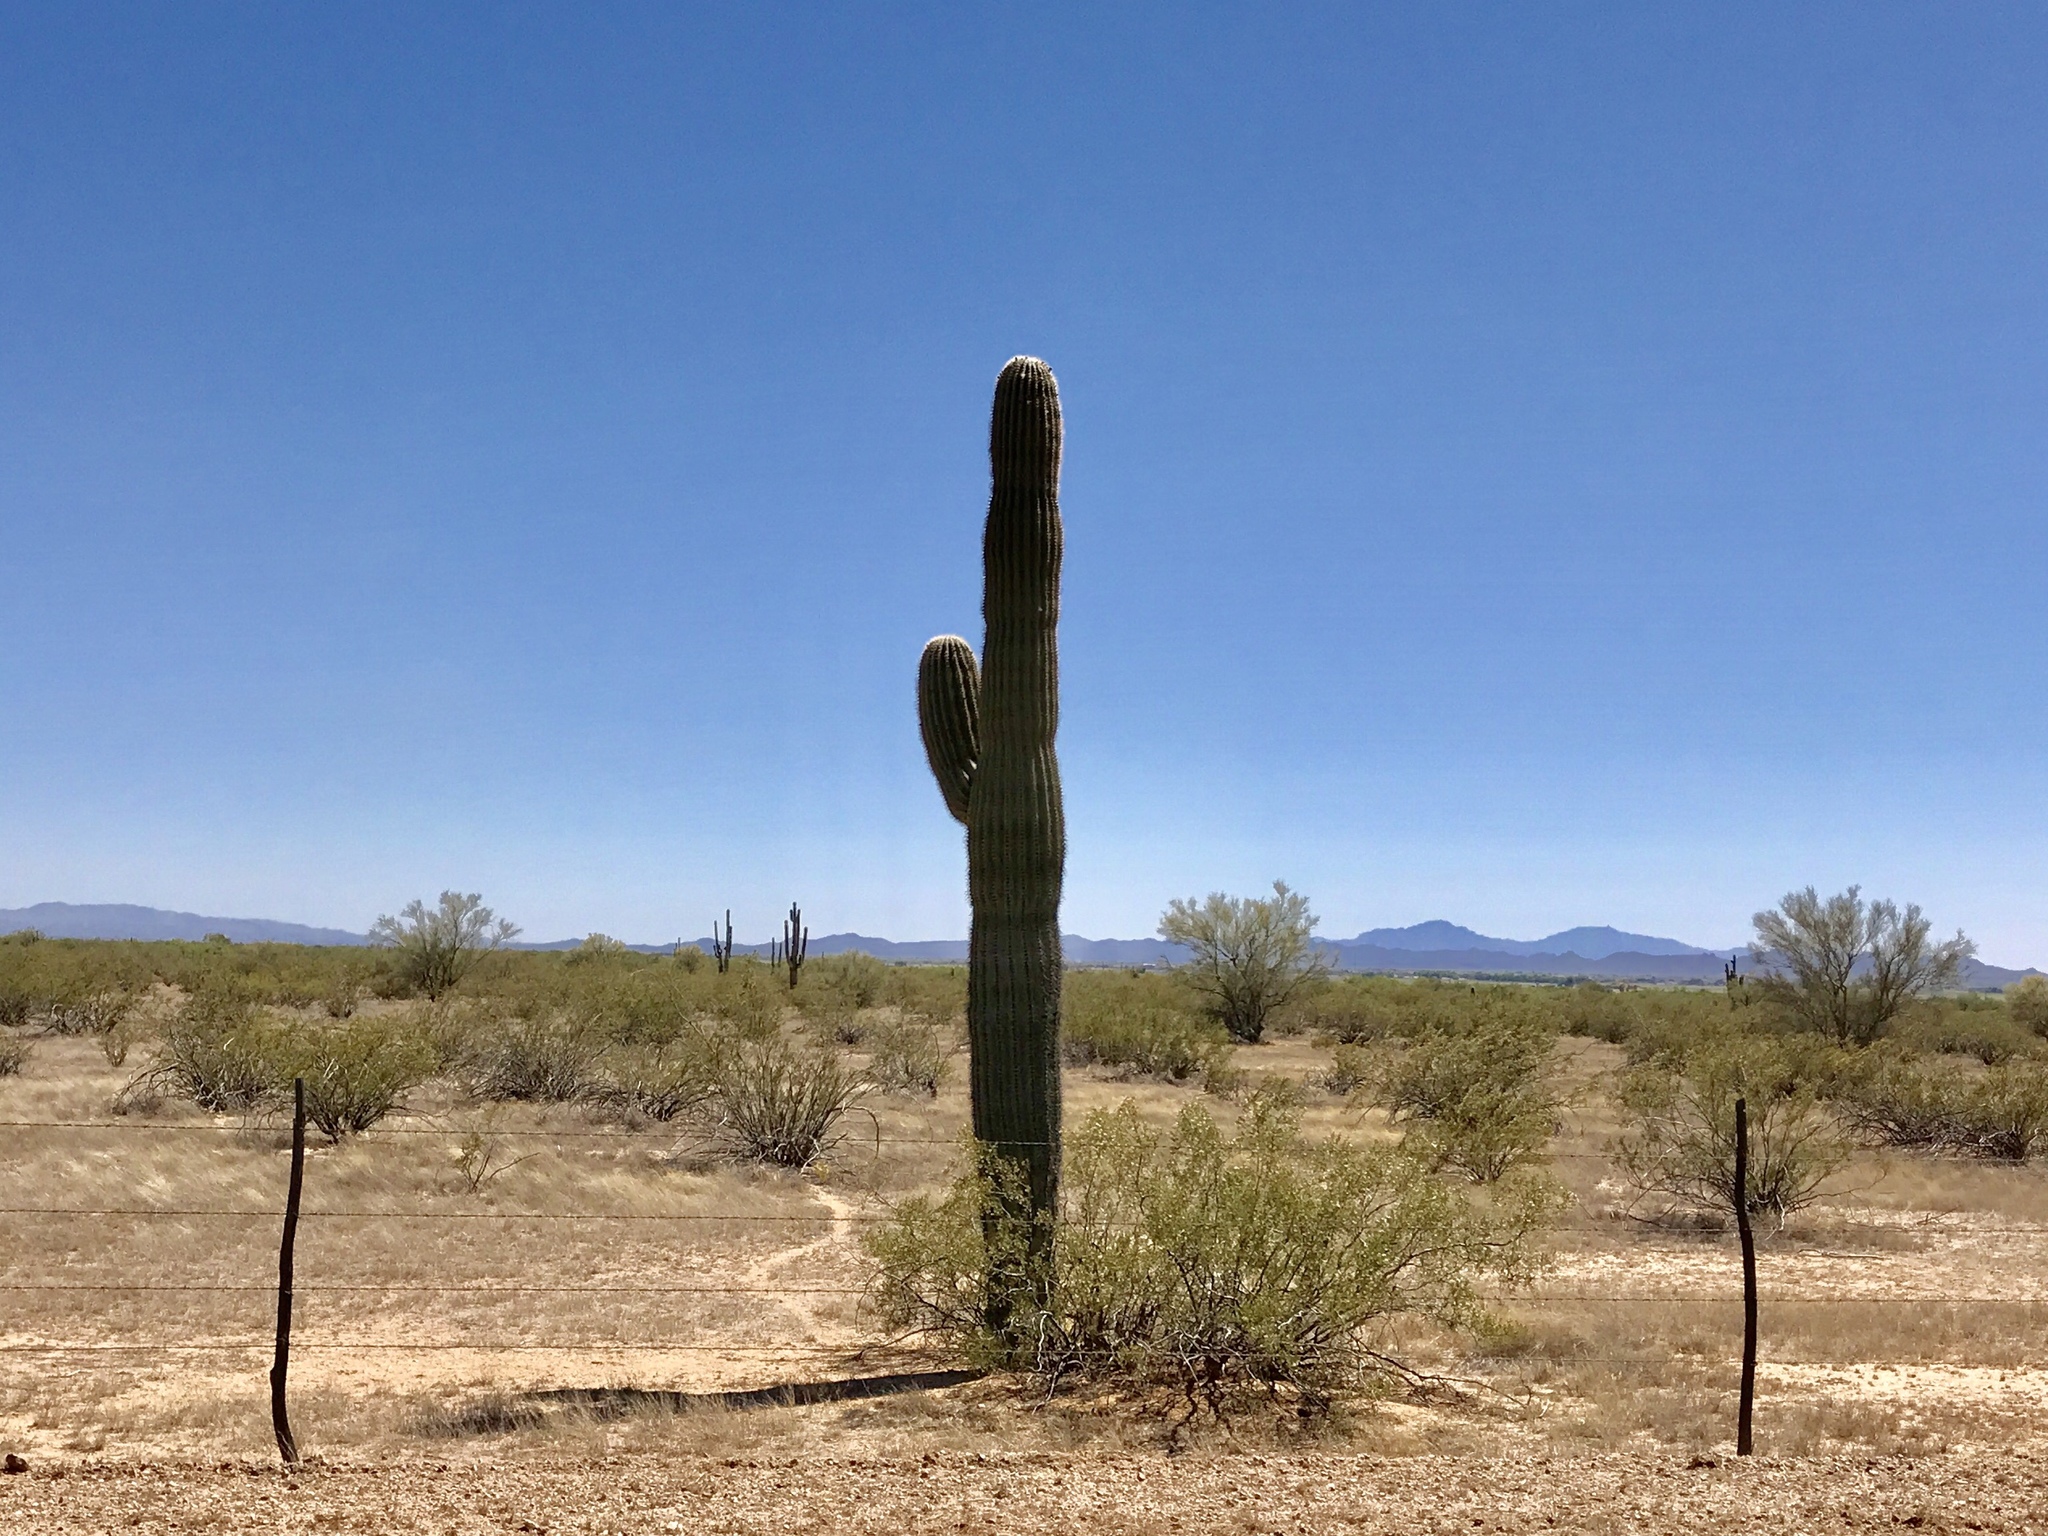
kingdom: Plantae
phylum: Tracheophyta
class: Magnoliopsida
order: Caryophyllales
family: Cactaceae
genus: Carnegiea
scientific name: Carnegiea gigantea
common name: Saguaro
